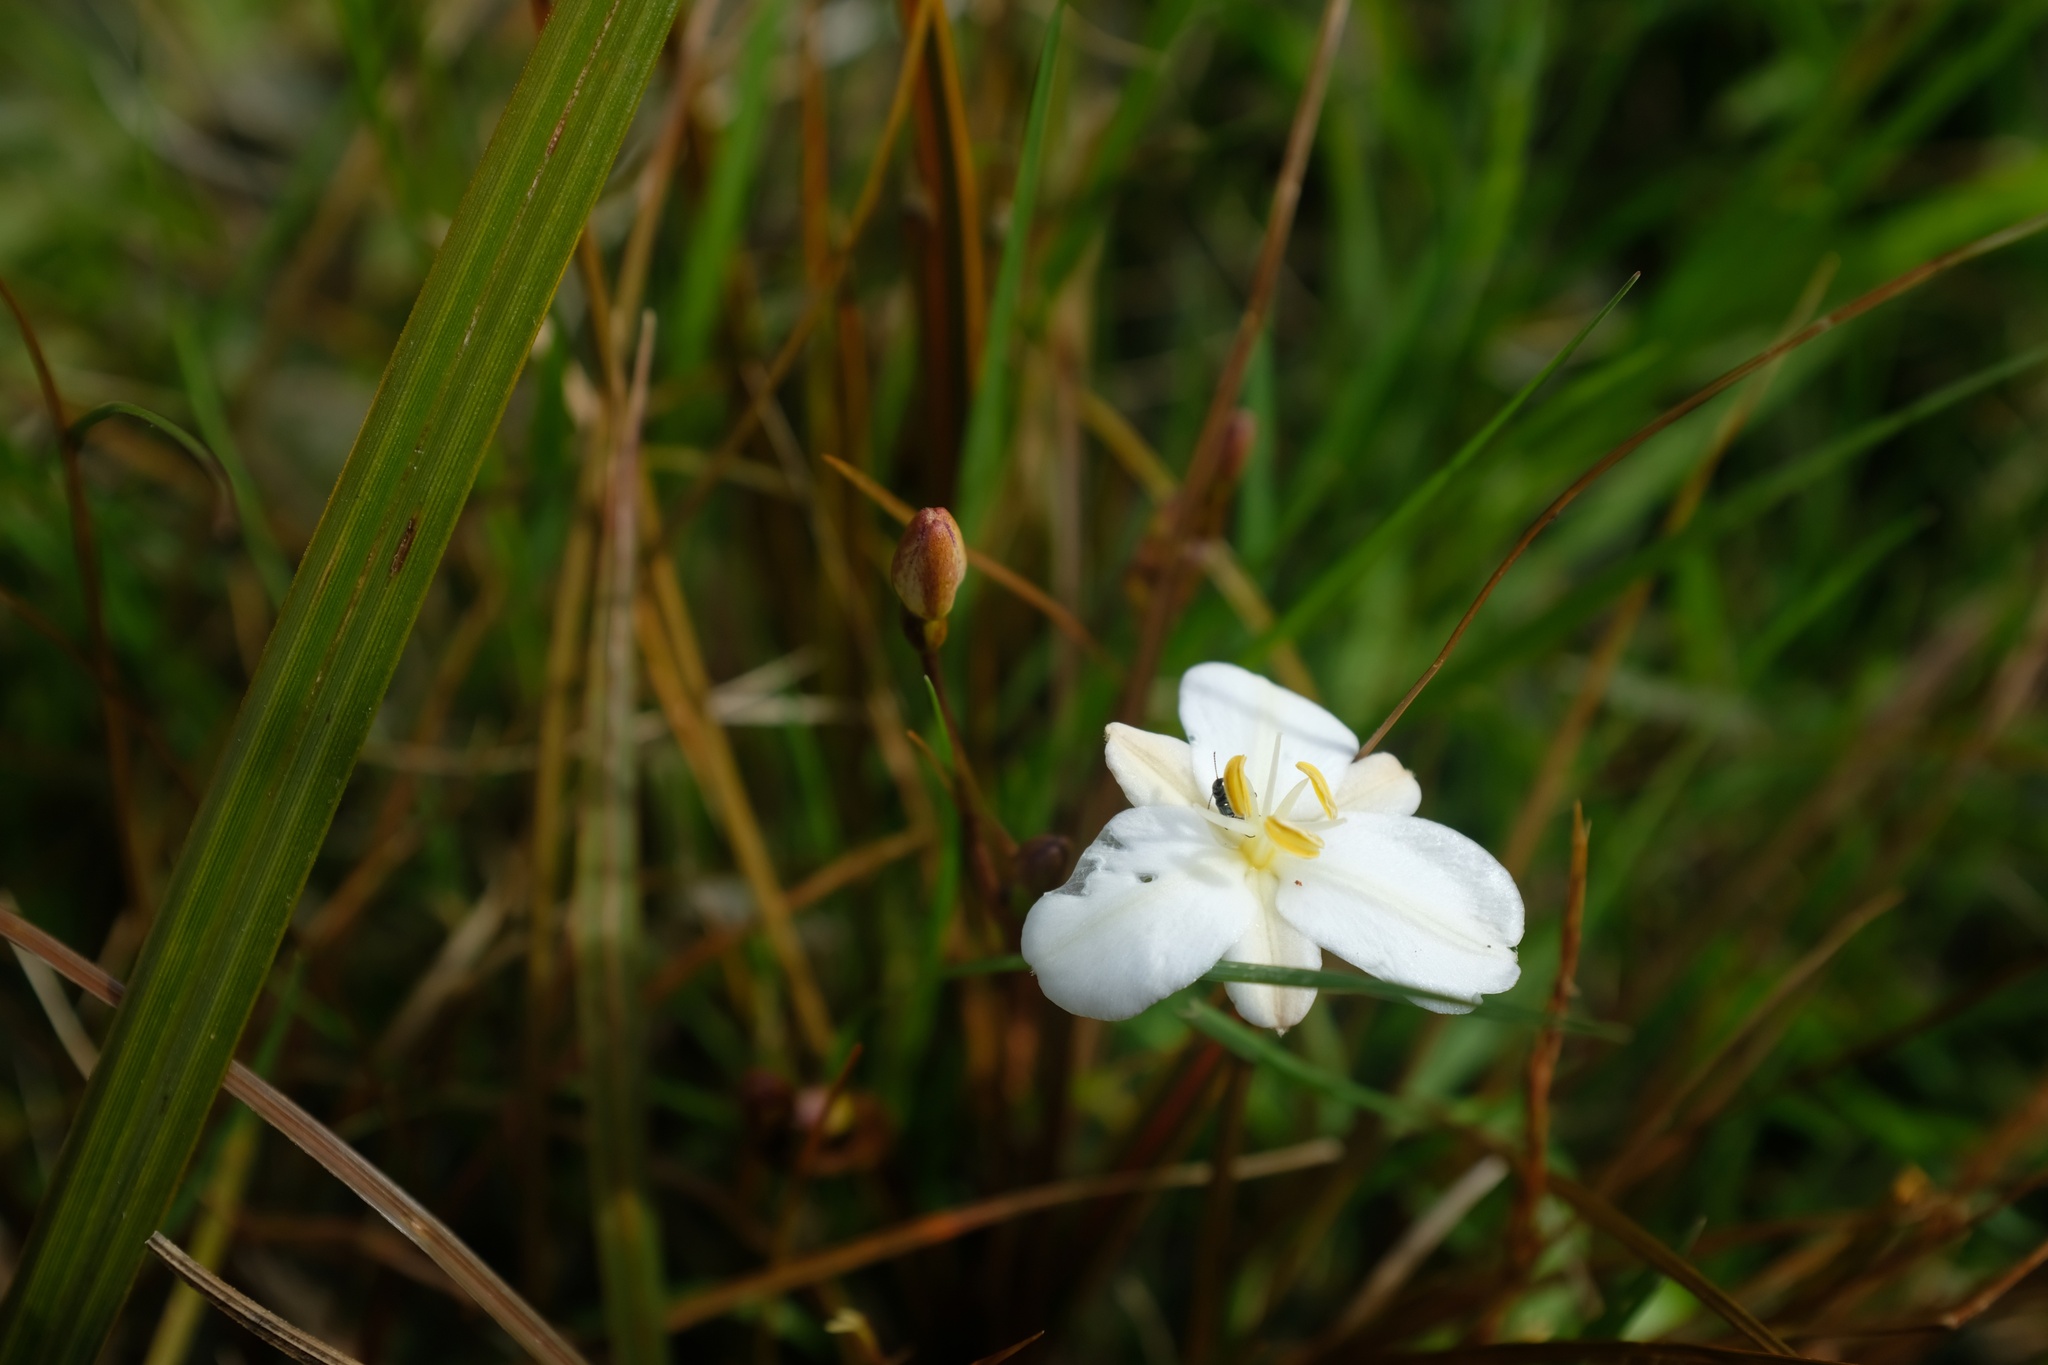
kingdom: Plantae
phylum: Tracheophyta
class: Liliopsida
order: Asparagales
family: Iridaceae
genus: Libertia
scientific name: Libertia ixioides
